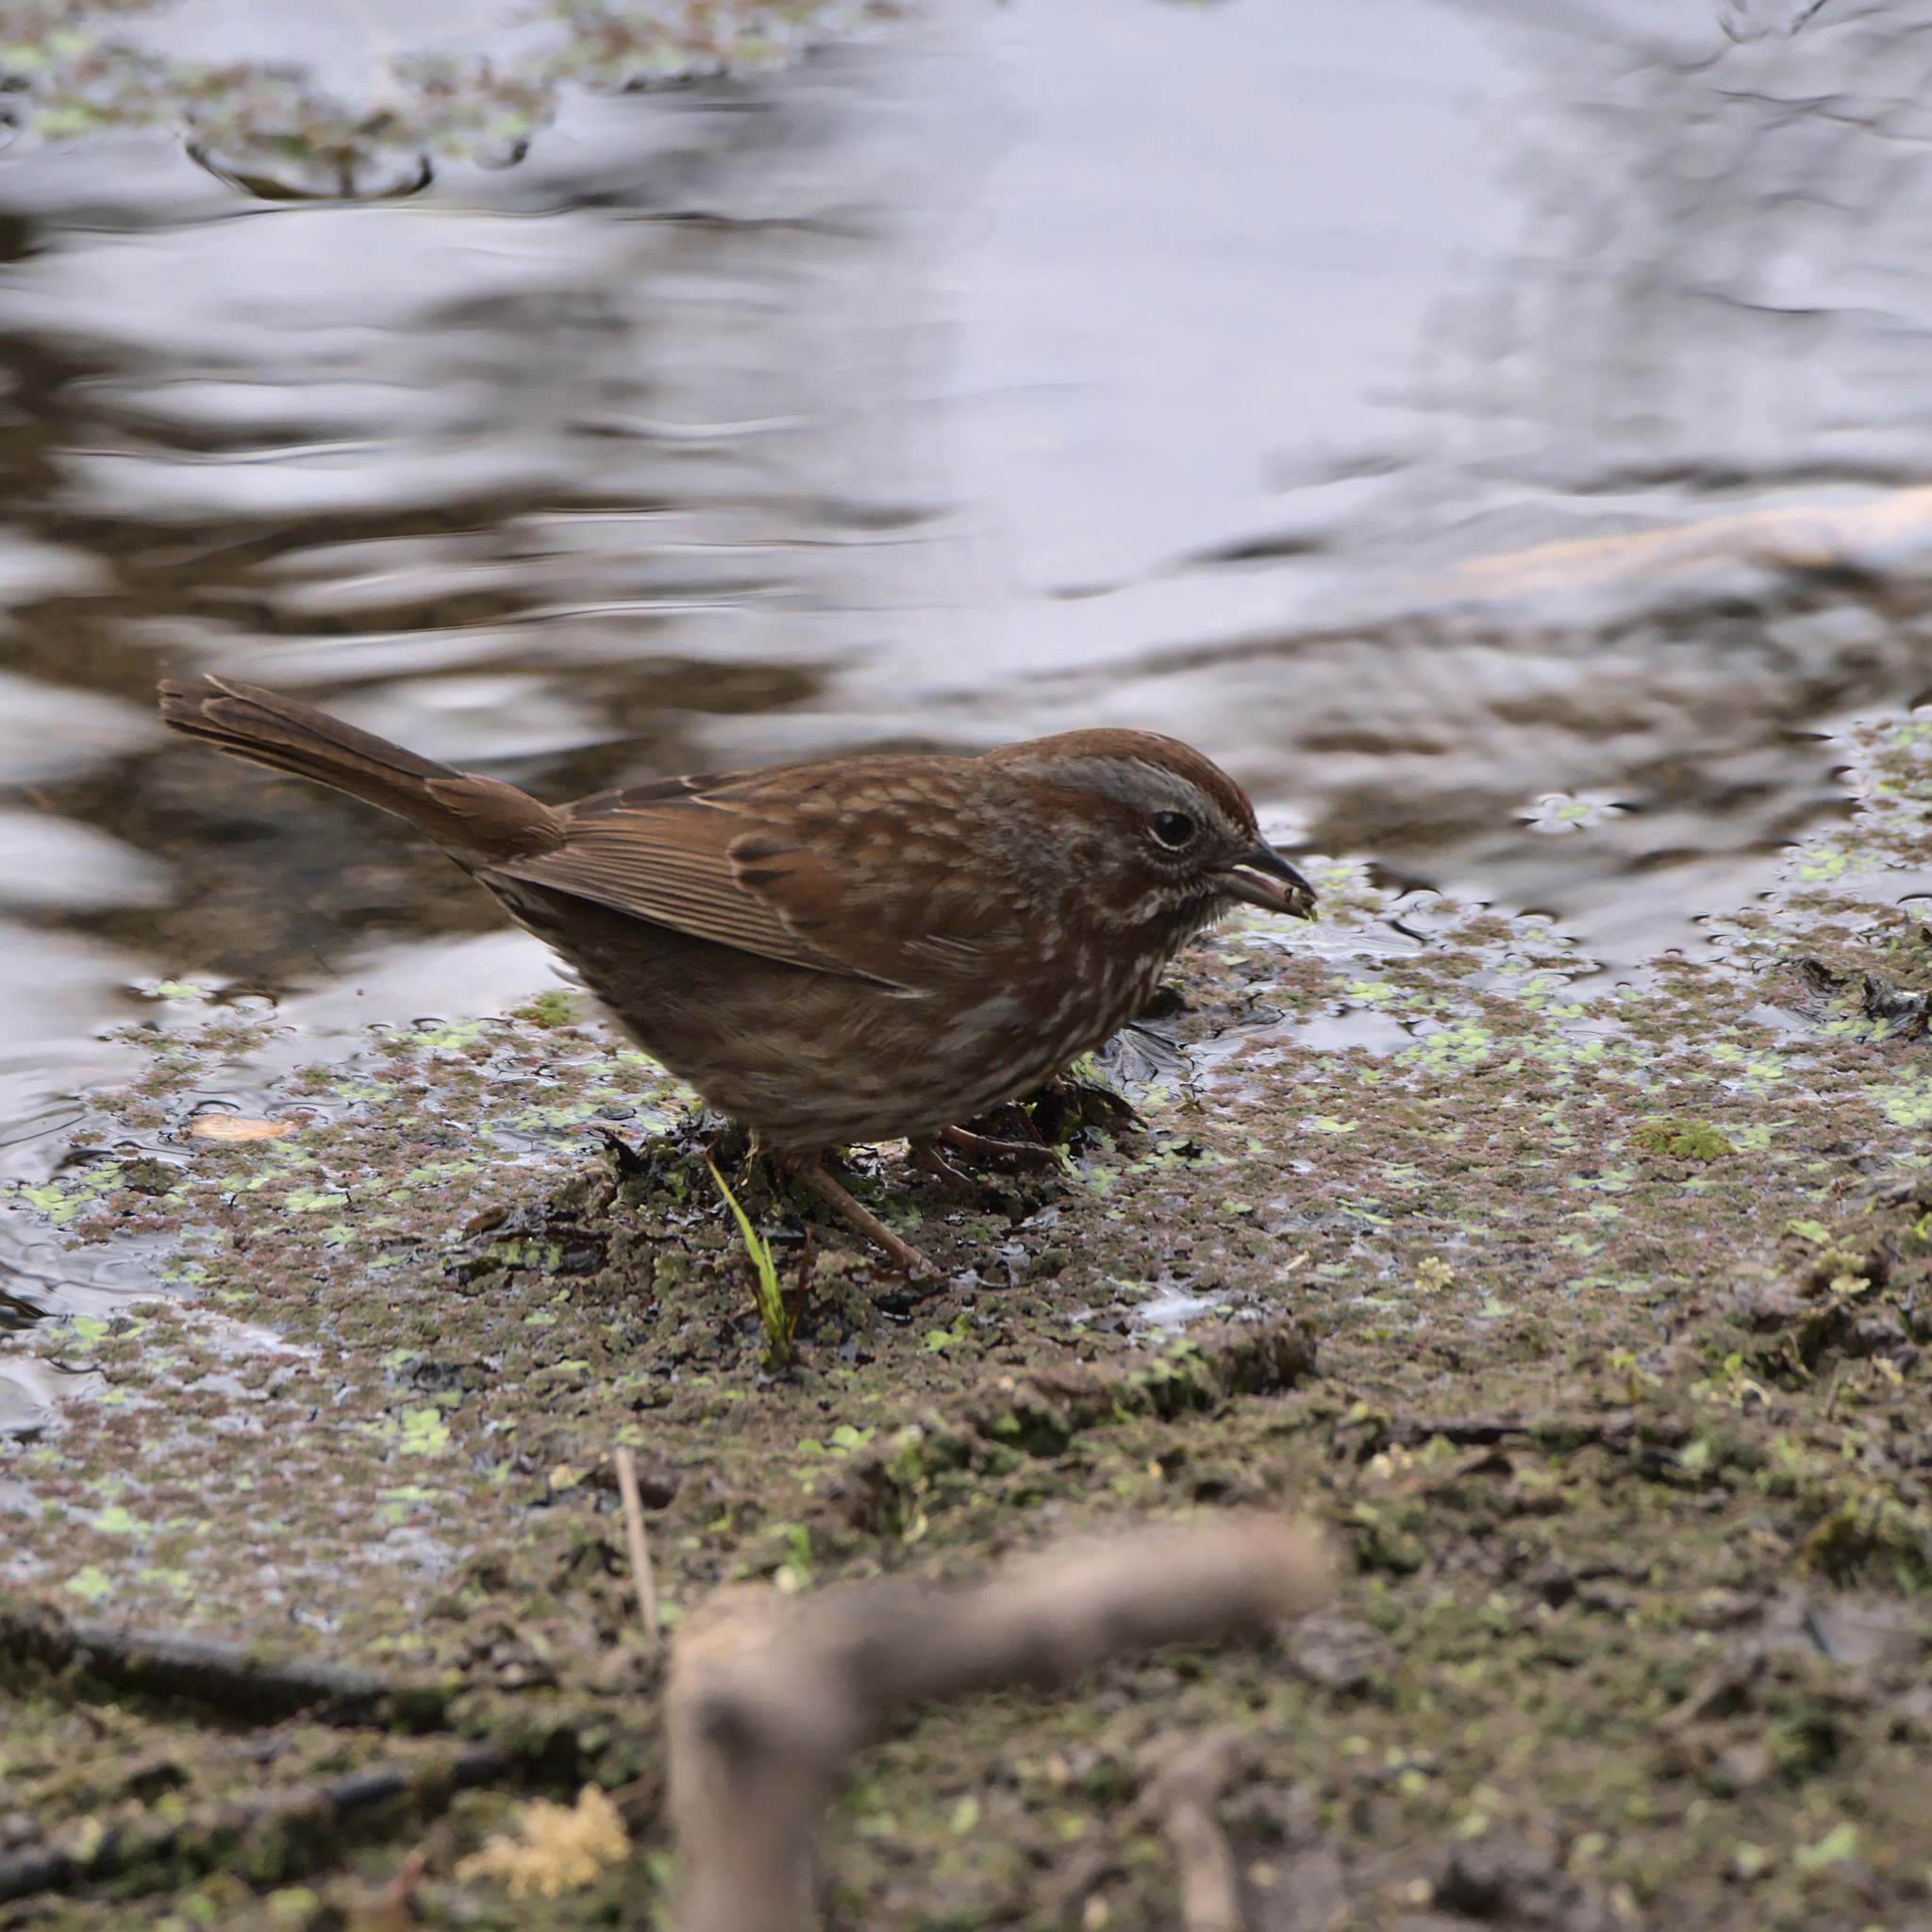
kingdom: Animalia
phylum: Chordata
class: Aves
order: Passeriformes
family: Passerellidae
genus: Melospiza
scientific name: Melospiza melodia
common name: Song sparrow
